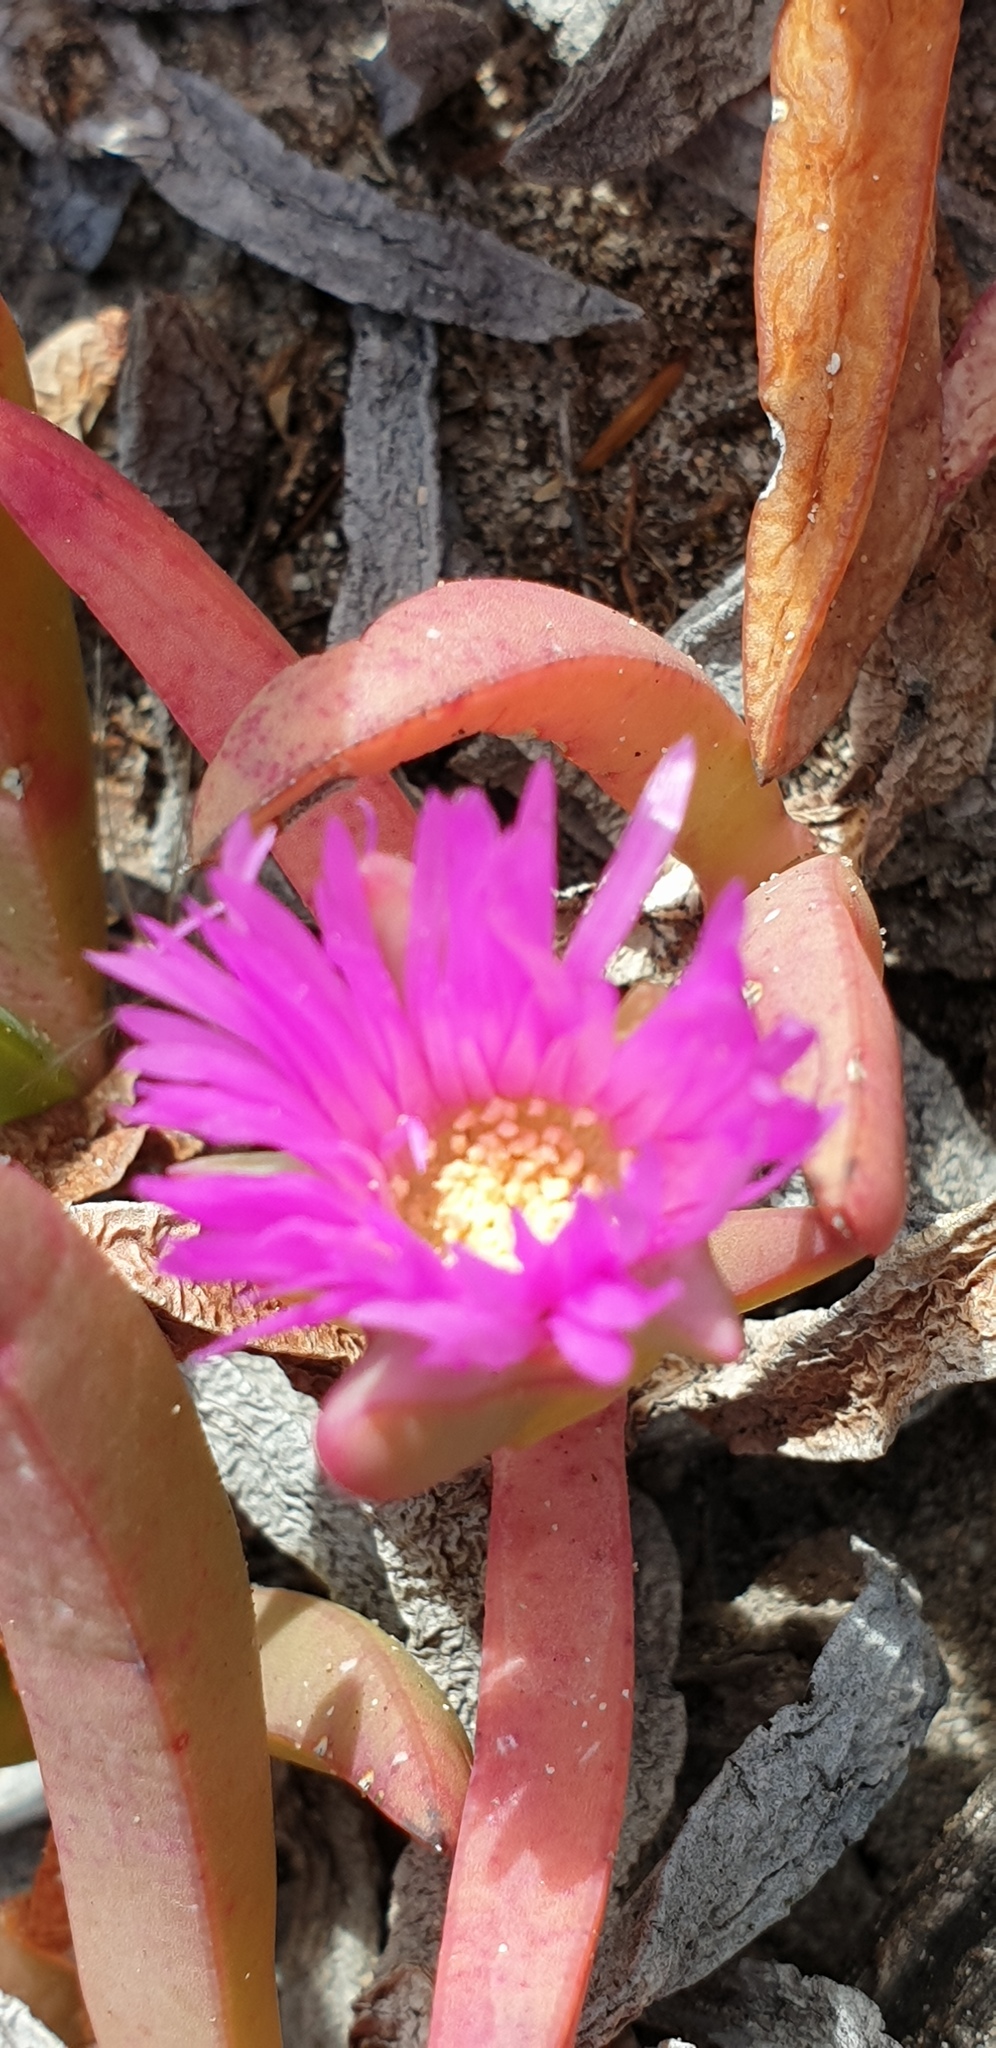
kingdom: Plantae
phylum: Tracheophyta
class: Magnoliopsida
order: Caryophyllales
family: Aizoaceae
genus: Carpobrotus
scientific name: Carpobrotus rossii
